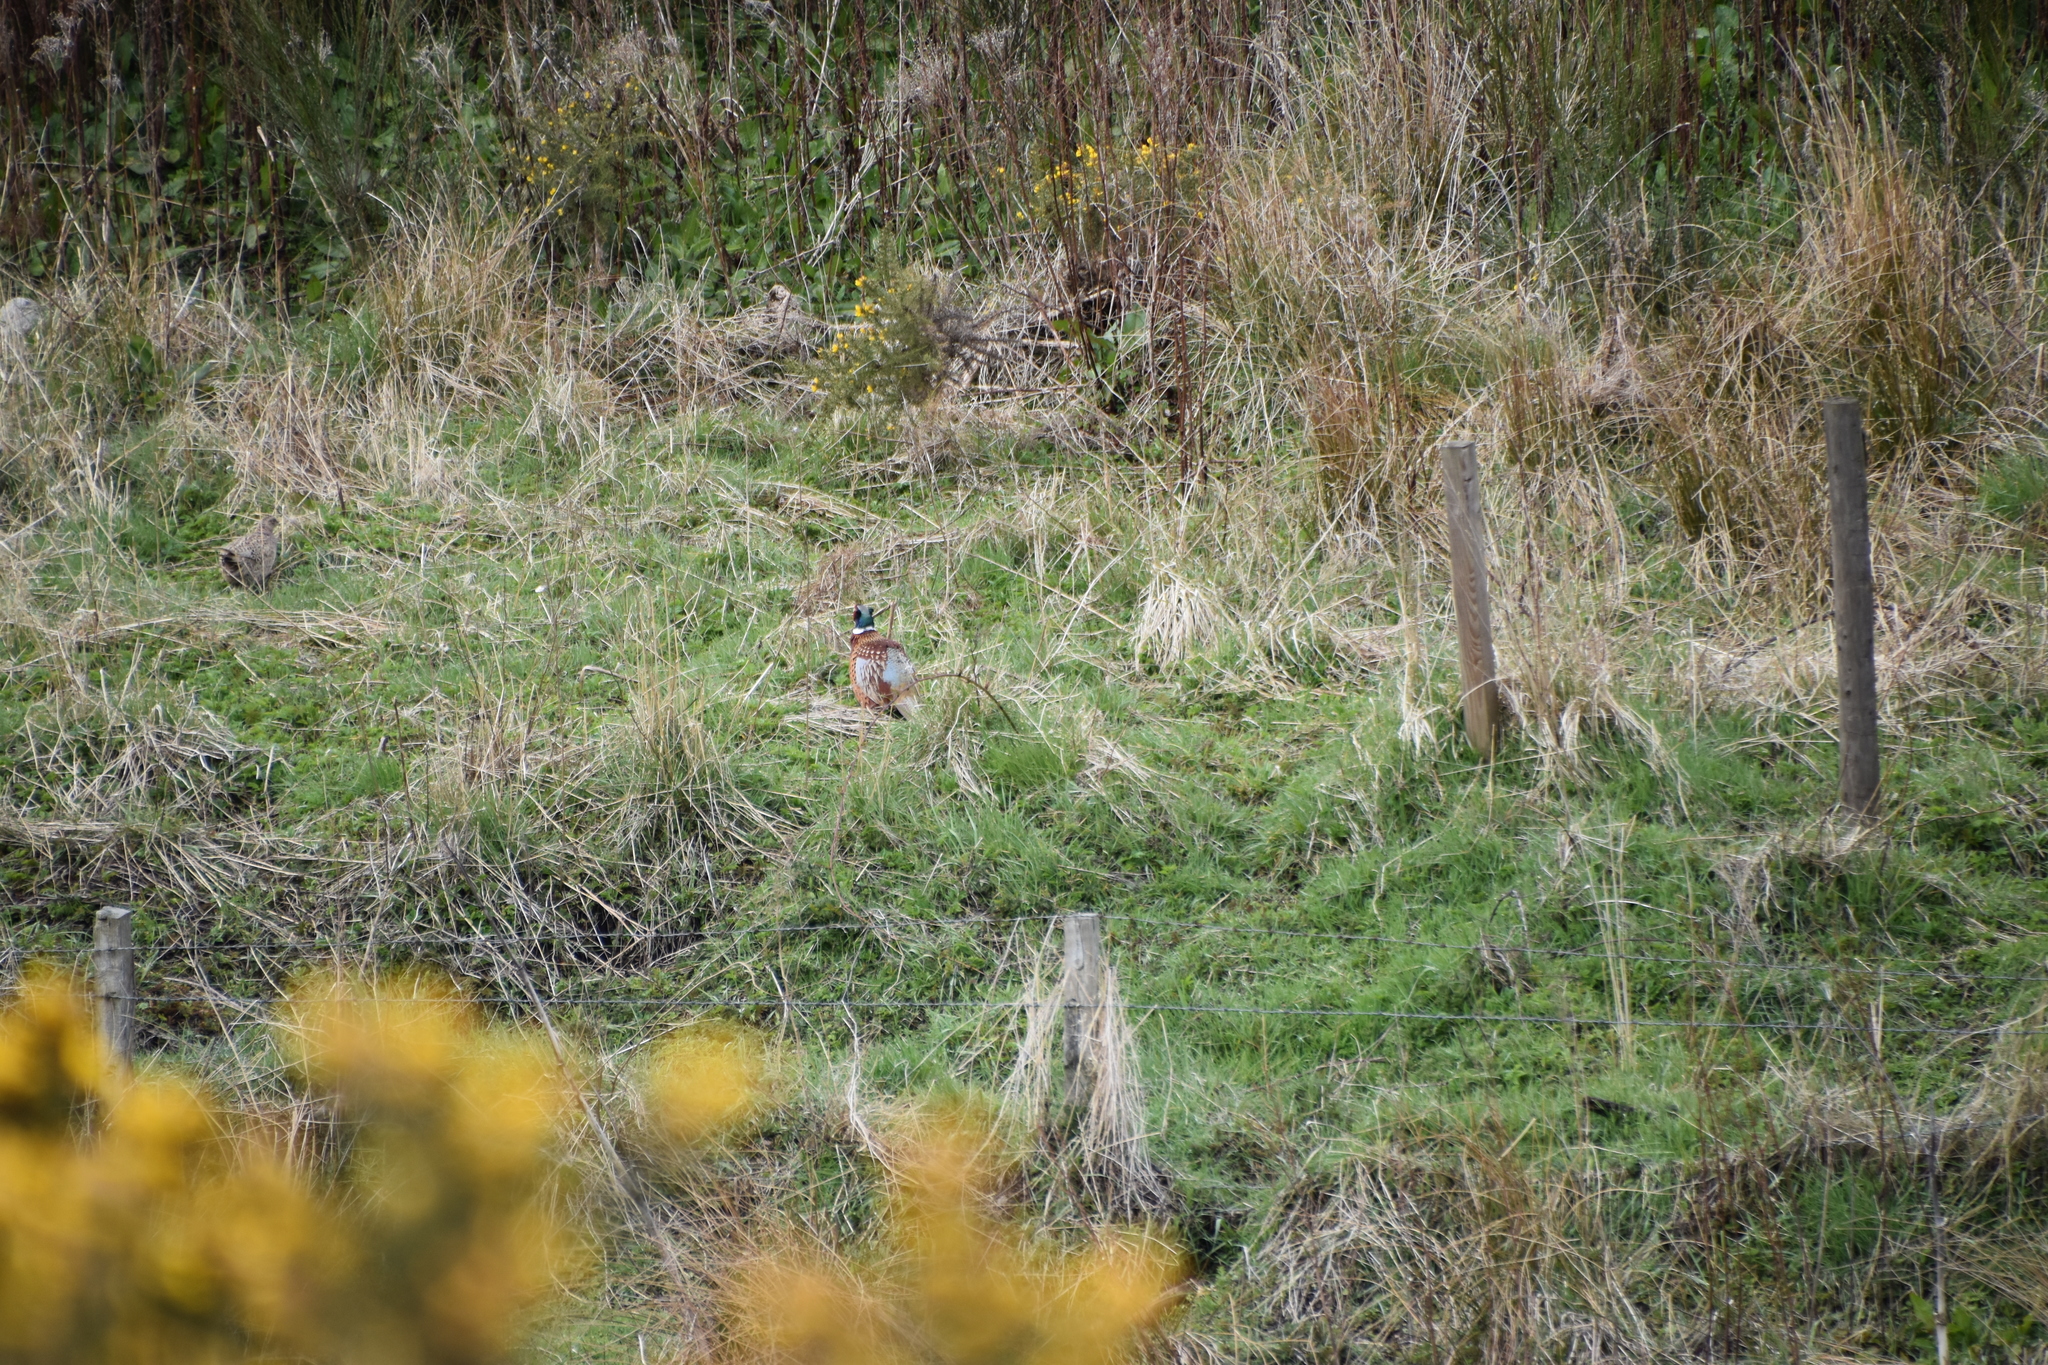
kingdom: Animalia
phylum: Chordata
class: Aves
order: Galliformes
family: Phasianidae
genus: Phasianus
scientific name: Phasianus colchicus
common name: Common pheasant
